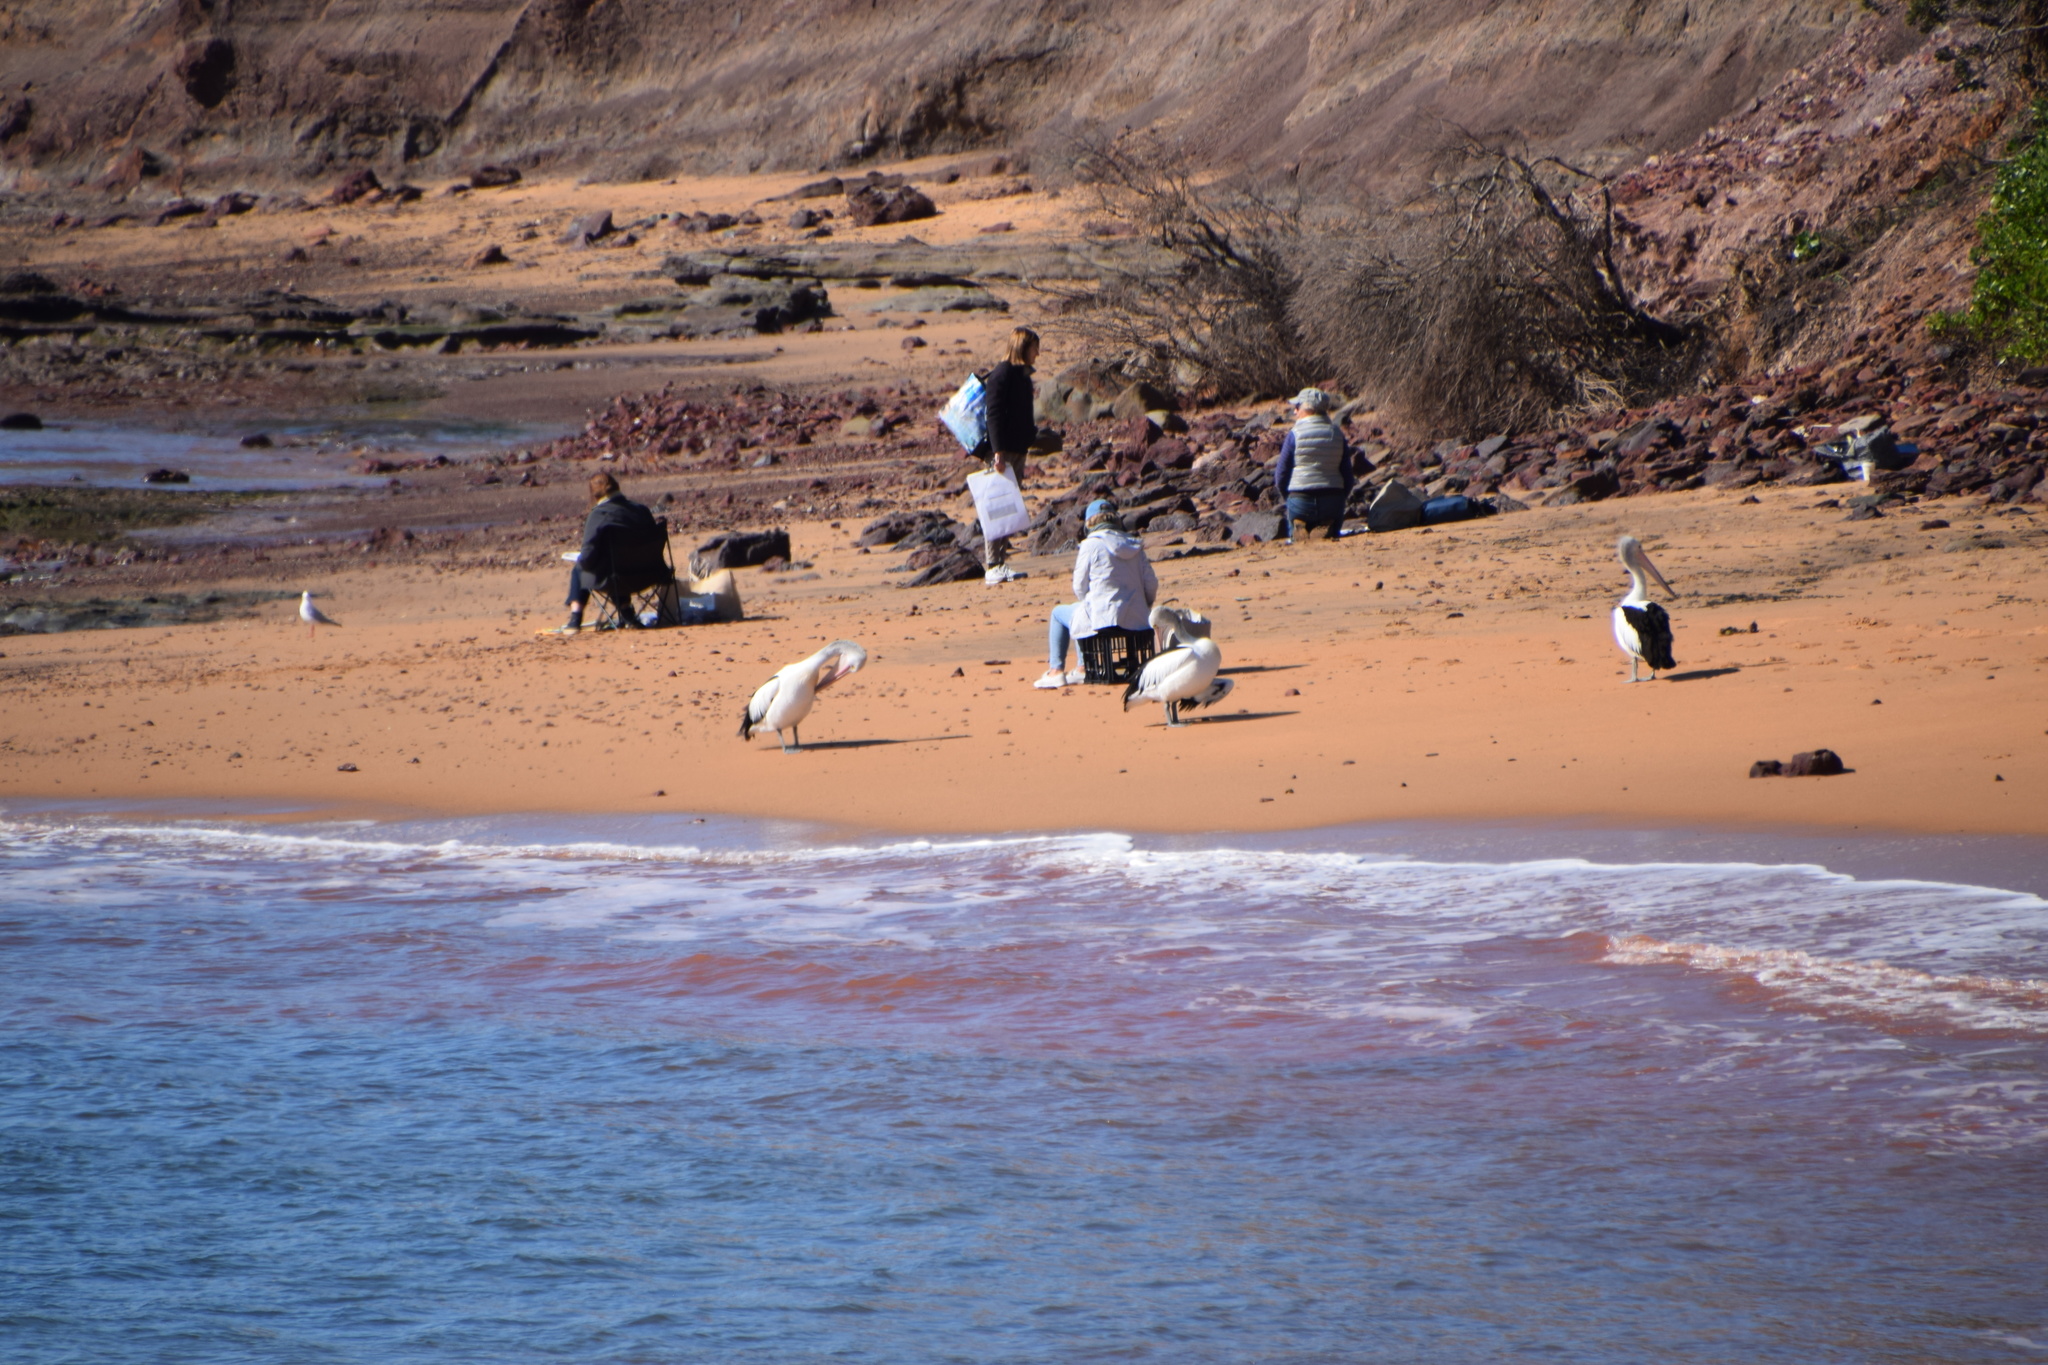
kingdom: Animalia
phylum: Chordata
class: Aves
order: Pelecaniformes
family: Pelecanidae
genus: Pelecanus
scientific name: Pelecanus conspicillatus
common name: Australian pelican
